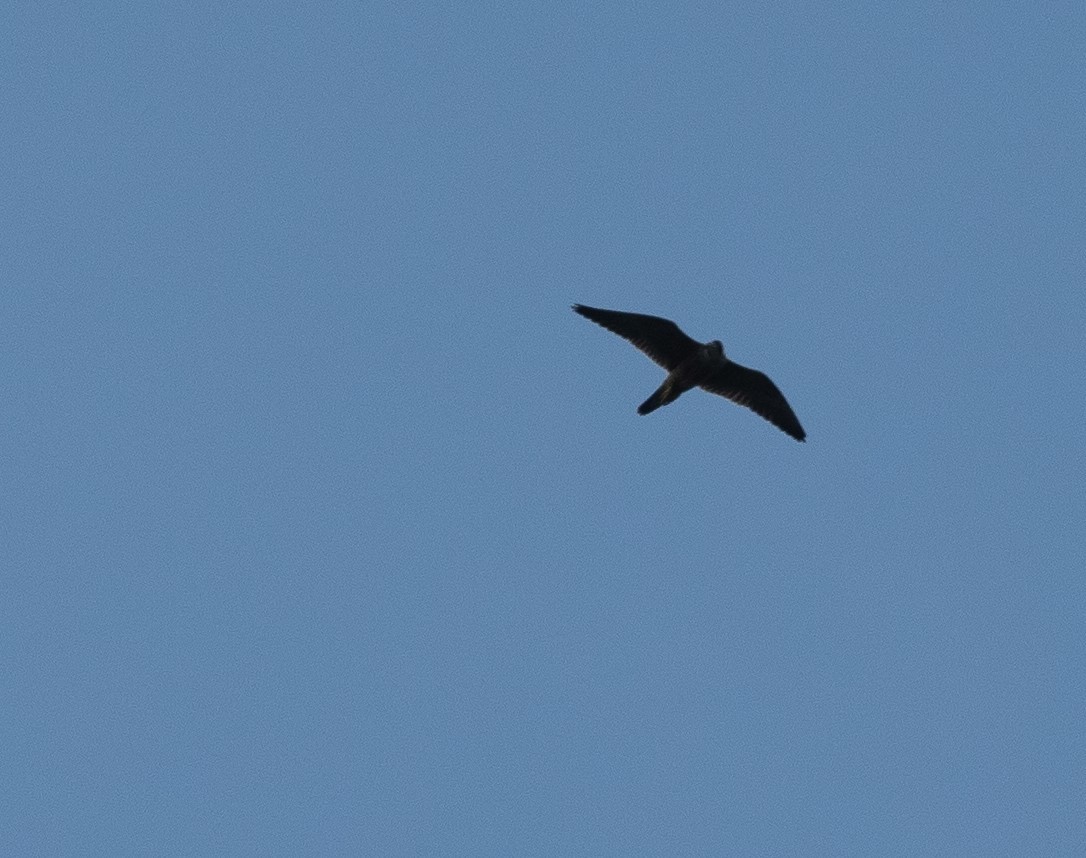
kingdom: Animalia
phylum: Chordata
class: Aves
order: Falconiformes
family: Falconidae
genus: Falco
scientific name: Falco peregrinus
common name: Peregrine falcon
